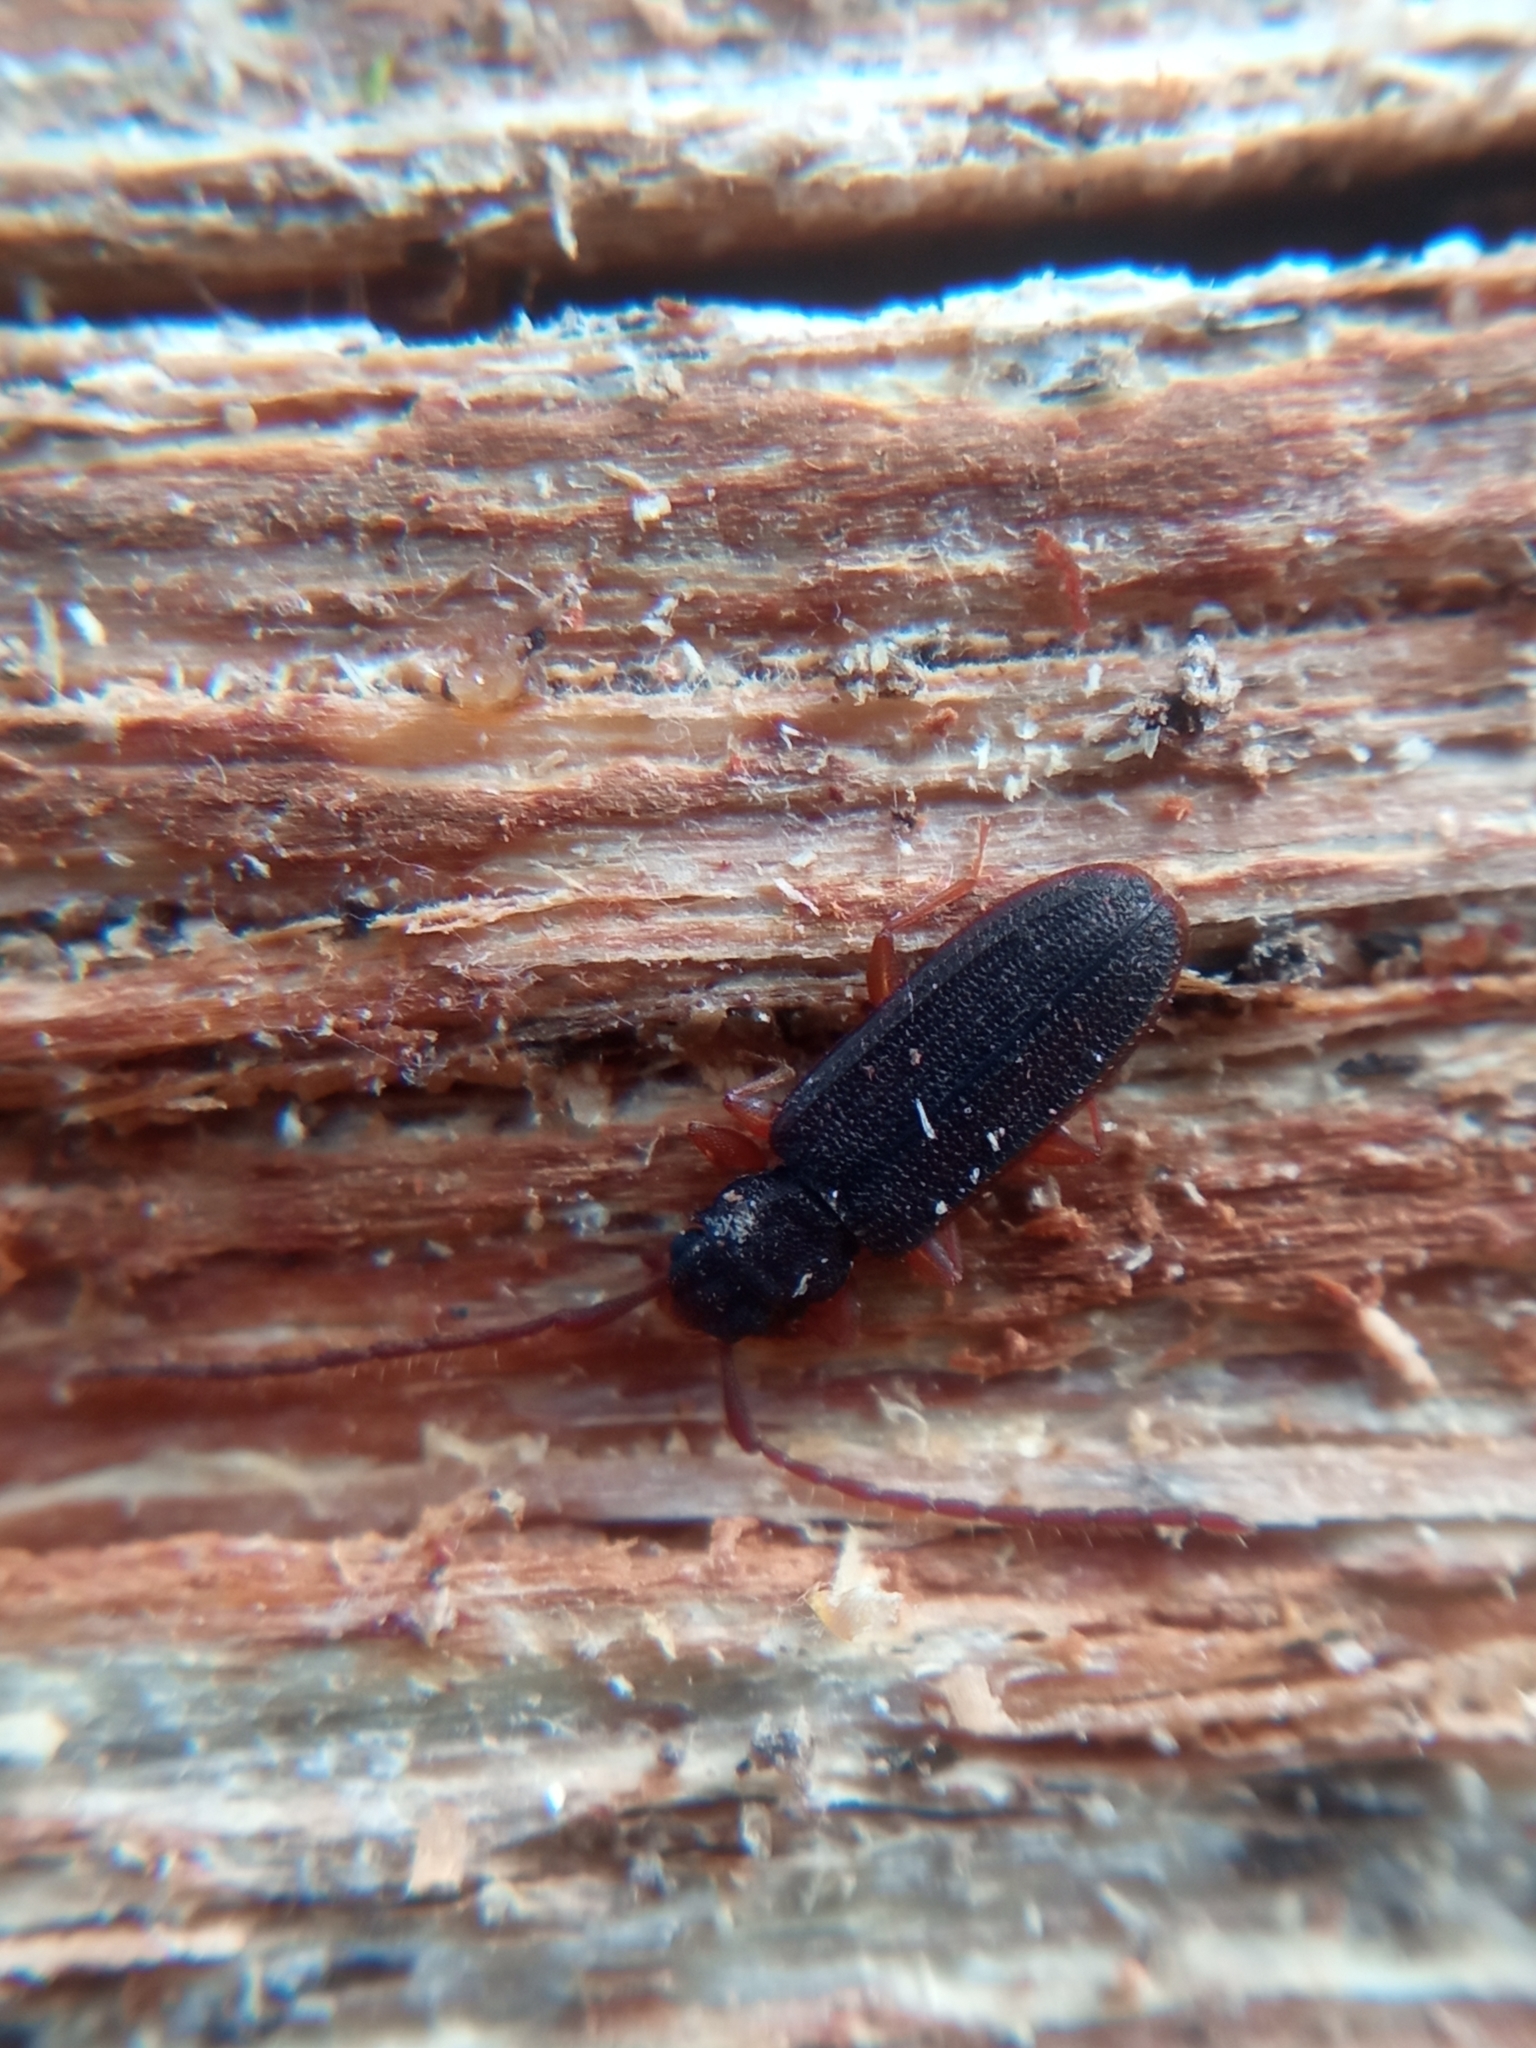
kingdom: Animalia
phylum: Arthropoda
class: Insecta
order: Coleoptera
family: Silvanidae
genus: Uleiota
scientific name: Uleiota planatus
